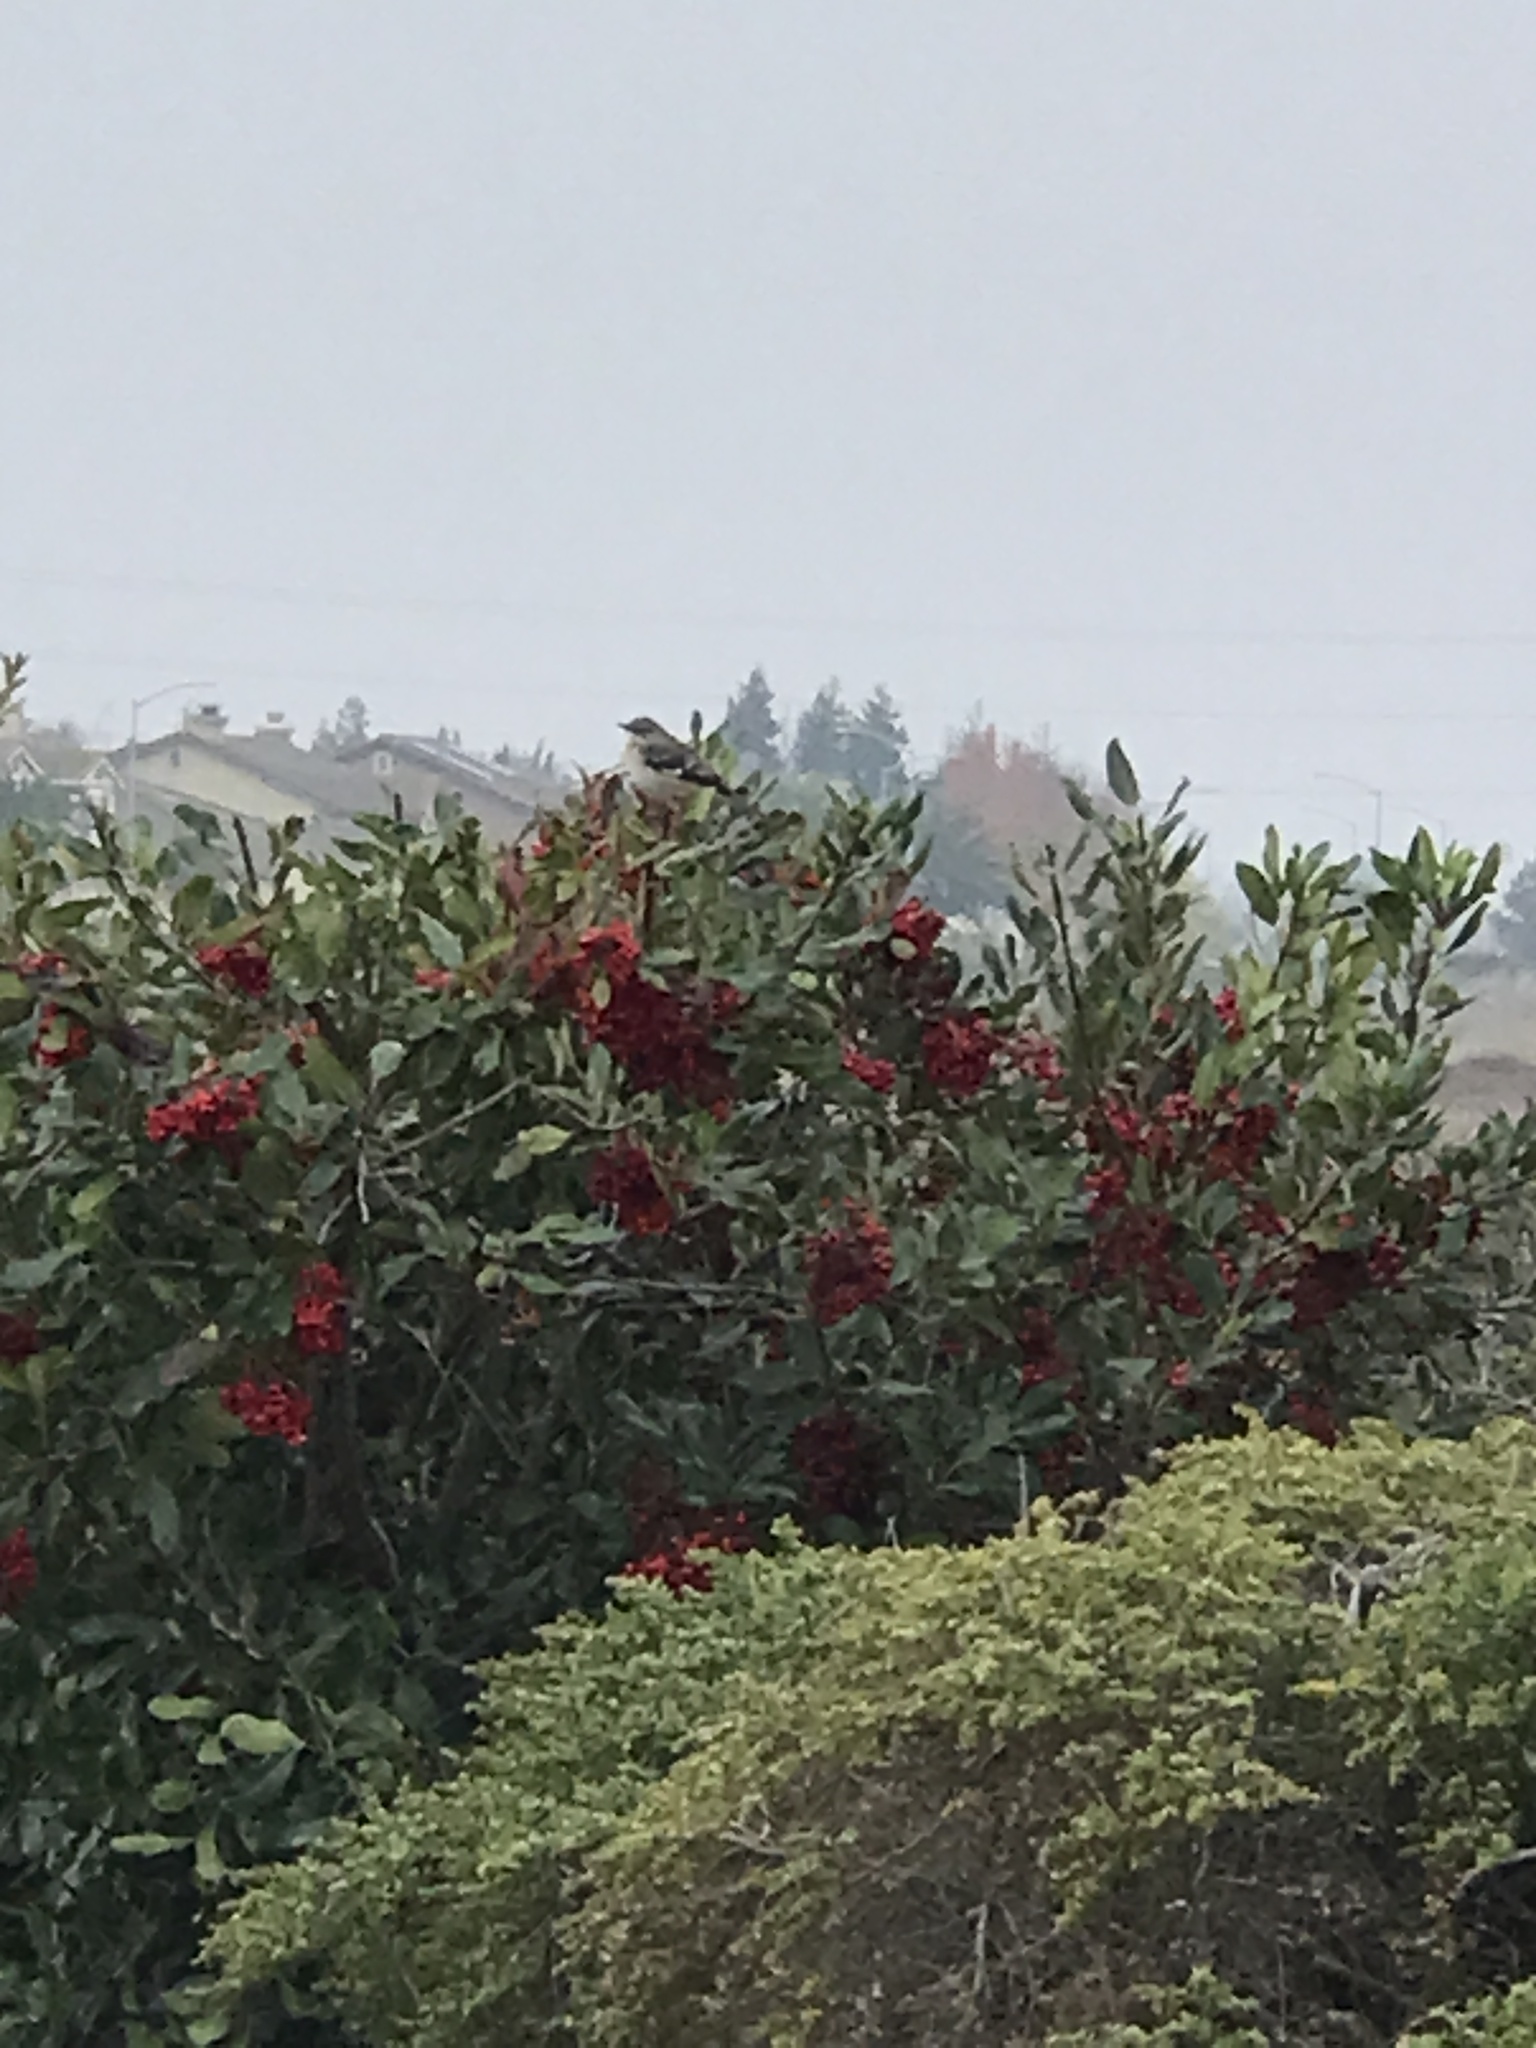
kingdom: Animalia
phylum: Chordata
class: Aves
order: Passeriformes
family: Mimidae
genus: Mimus
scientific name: Mimus polyglottos
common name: Northern mockingbird
